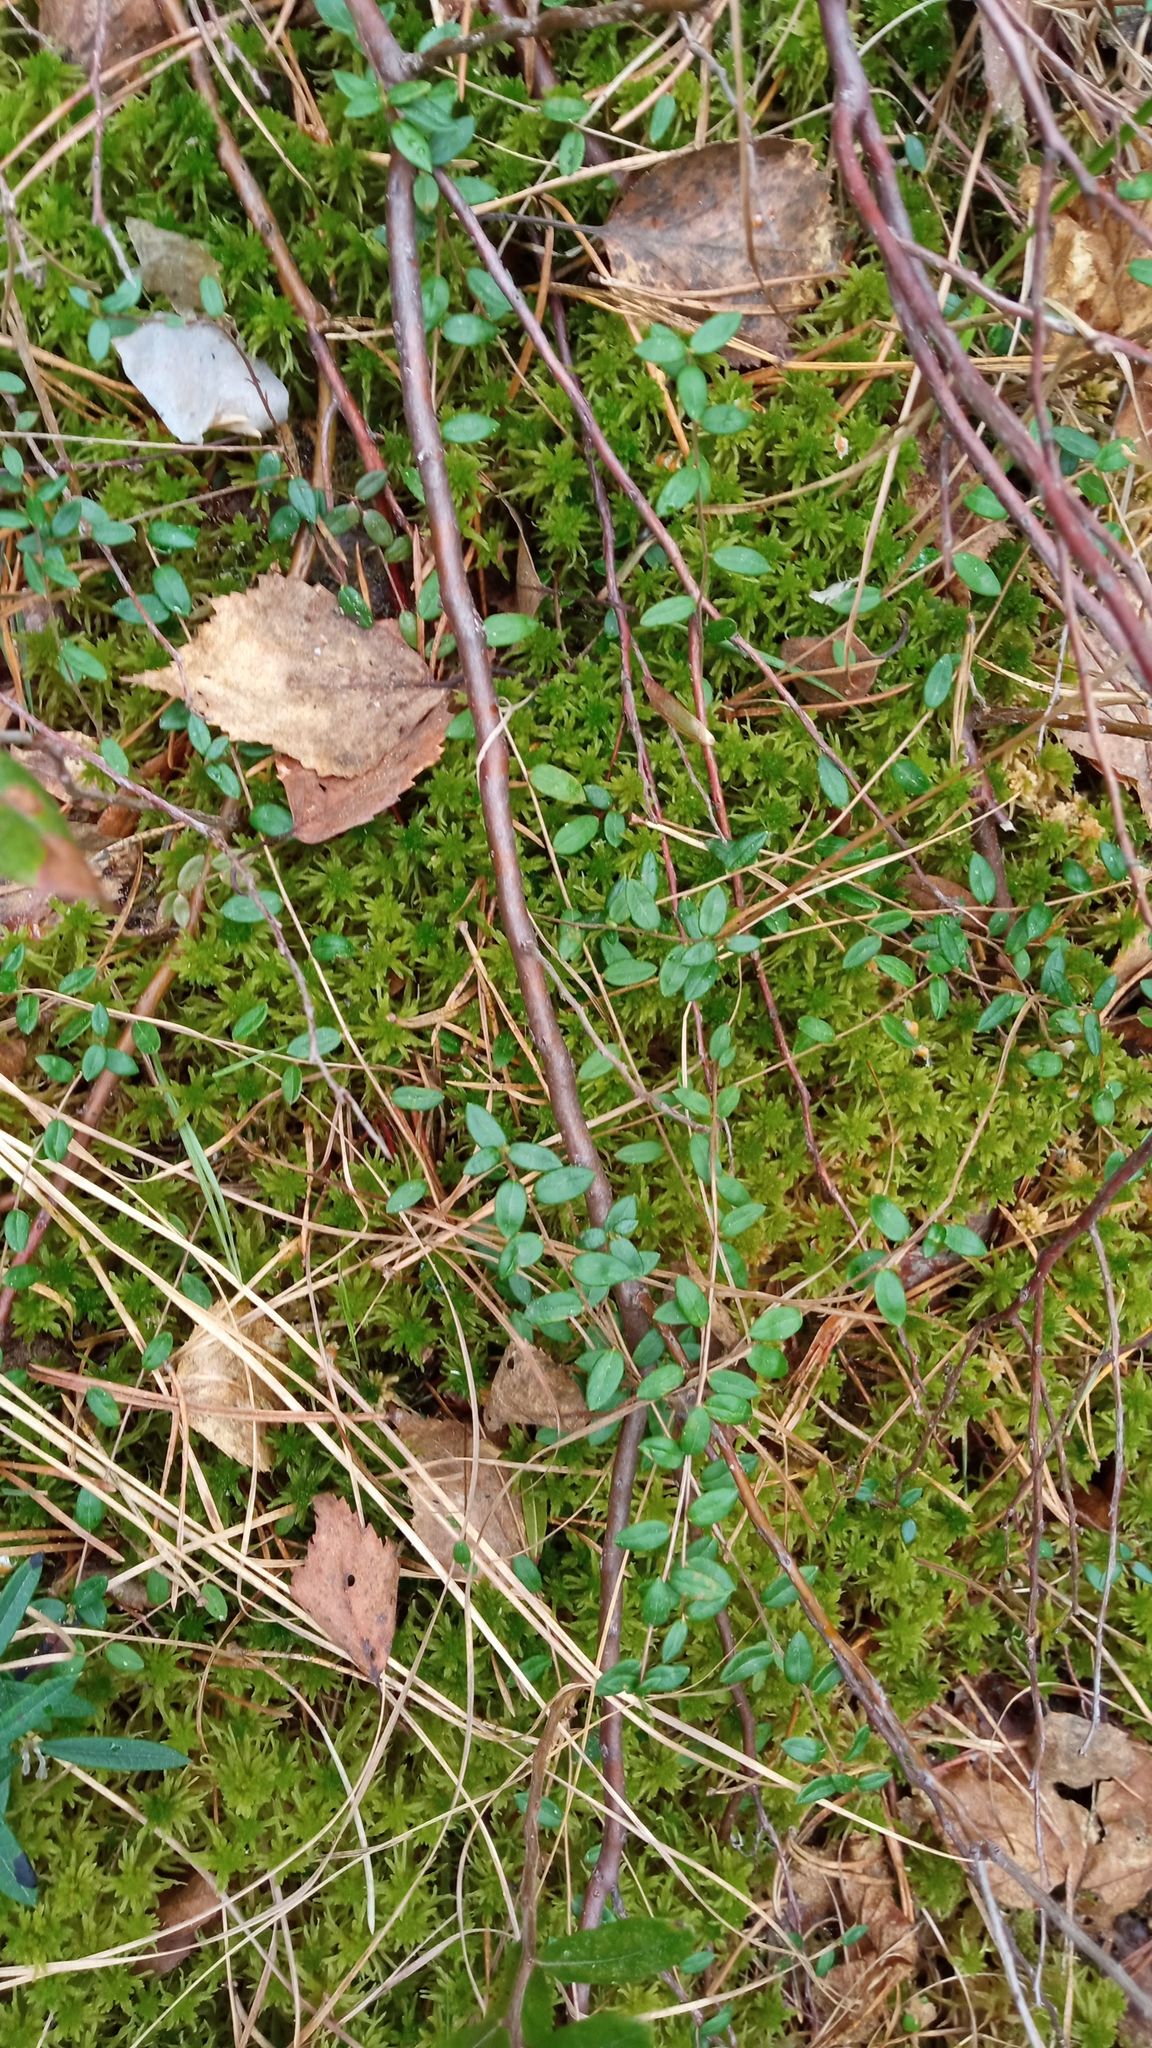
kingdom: Plantae
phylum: Tracheophyta
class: Magnoliopsida
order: Ericales
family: Ericaceae
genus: Vaccinium
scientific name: Vaccinium oxycoccos
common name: Cranberry
